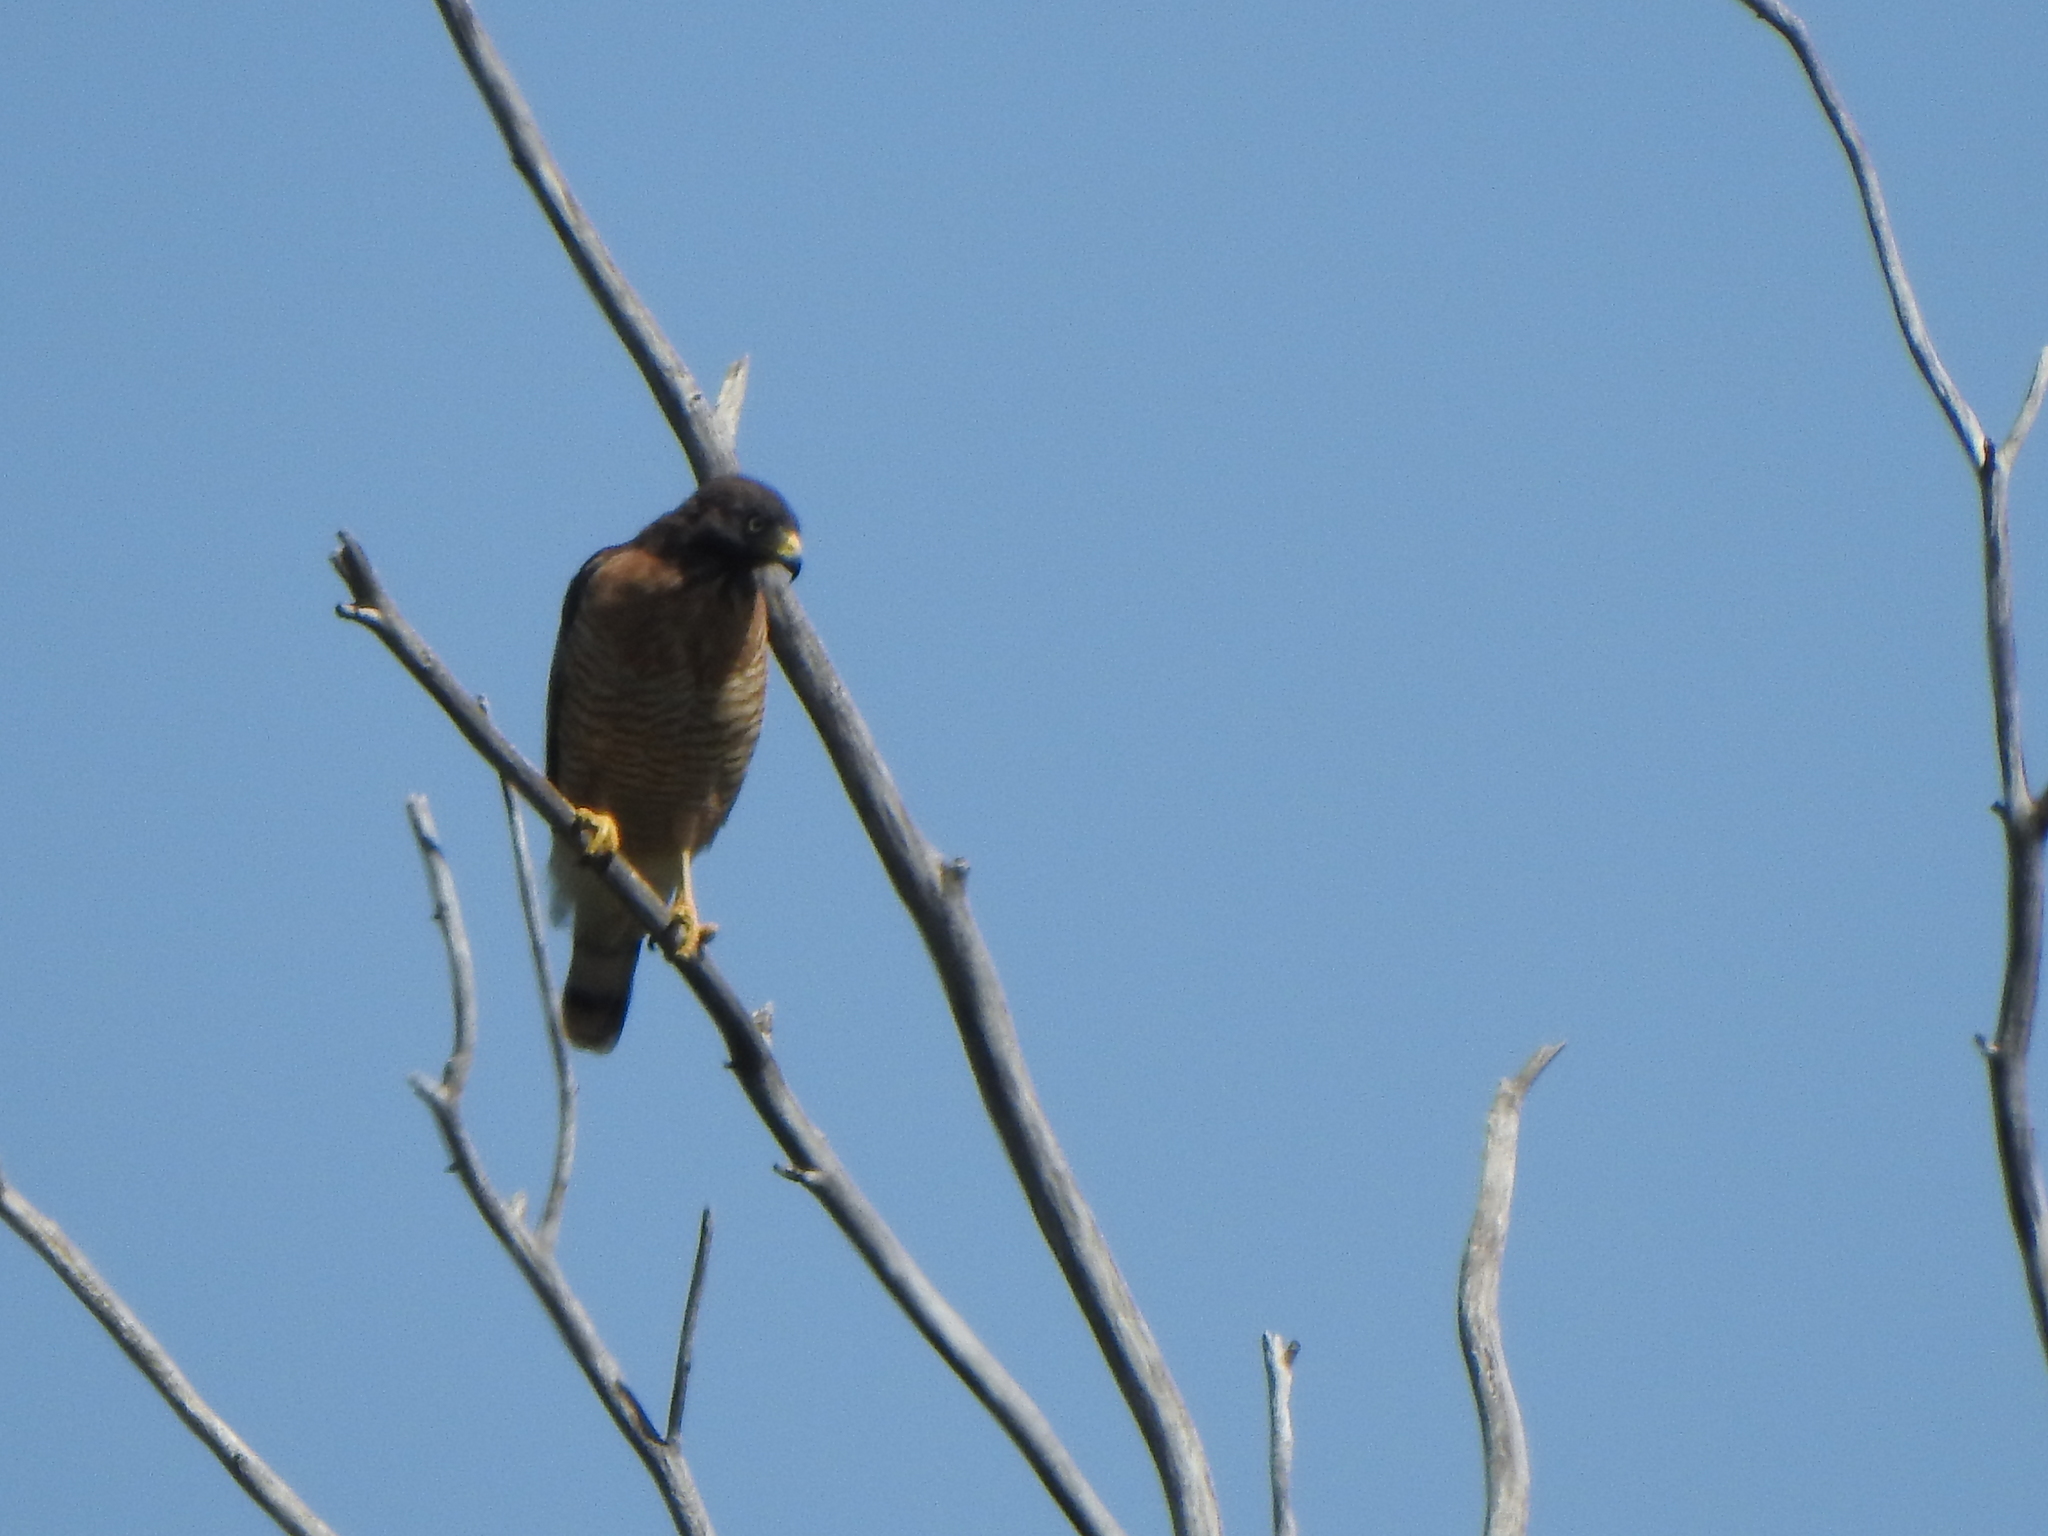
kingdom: Animalia
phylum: Chordata
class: Aves
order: Accipitriformes
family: Accipitridae
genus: Rupornis
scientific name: Rupornis magnirostris
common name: Roadside hawk
